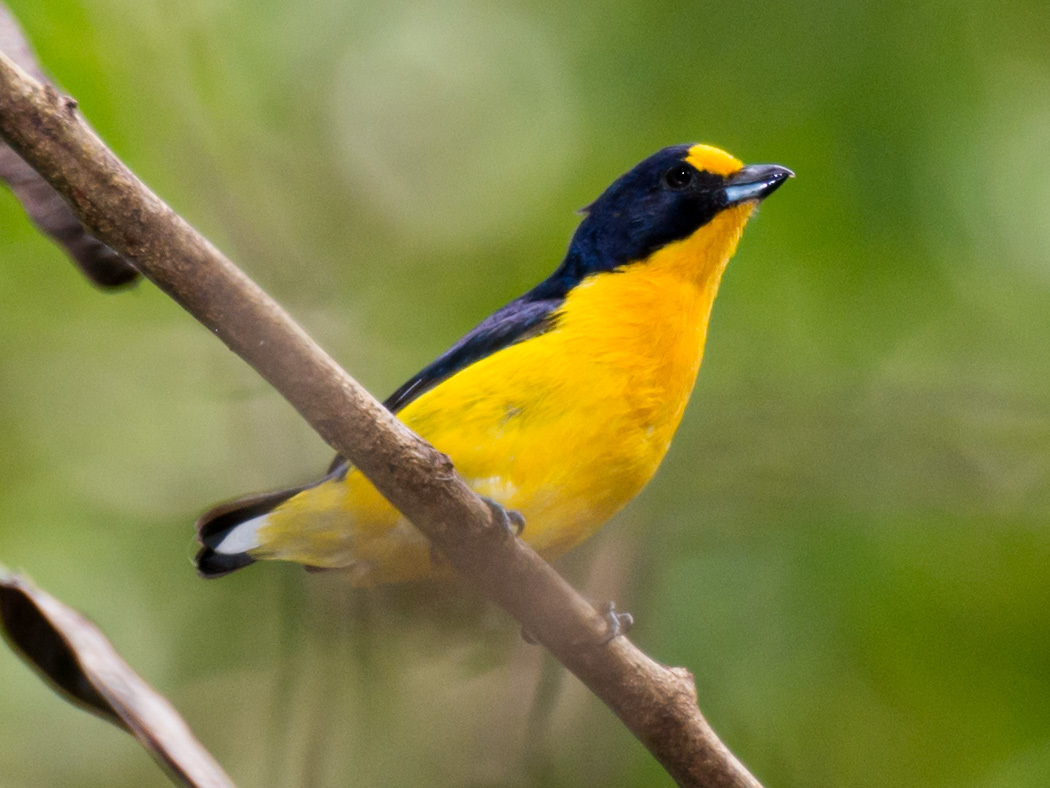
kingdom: Animalia
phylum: Chordata
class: Aves
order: Passeriformes
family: Fringillidae
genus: Euphonia
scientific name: Euphonia violacea
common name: Violaceous euphonia
